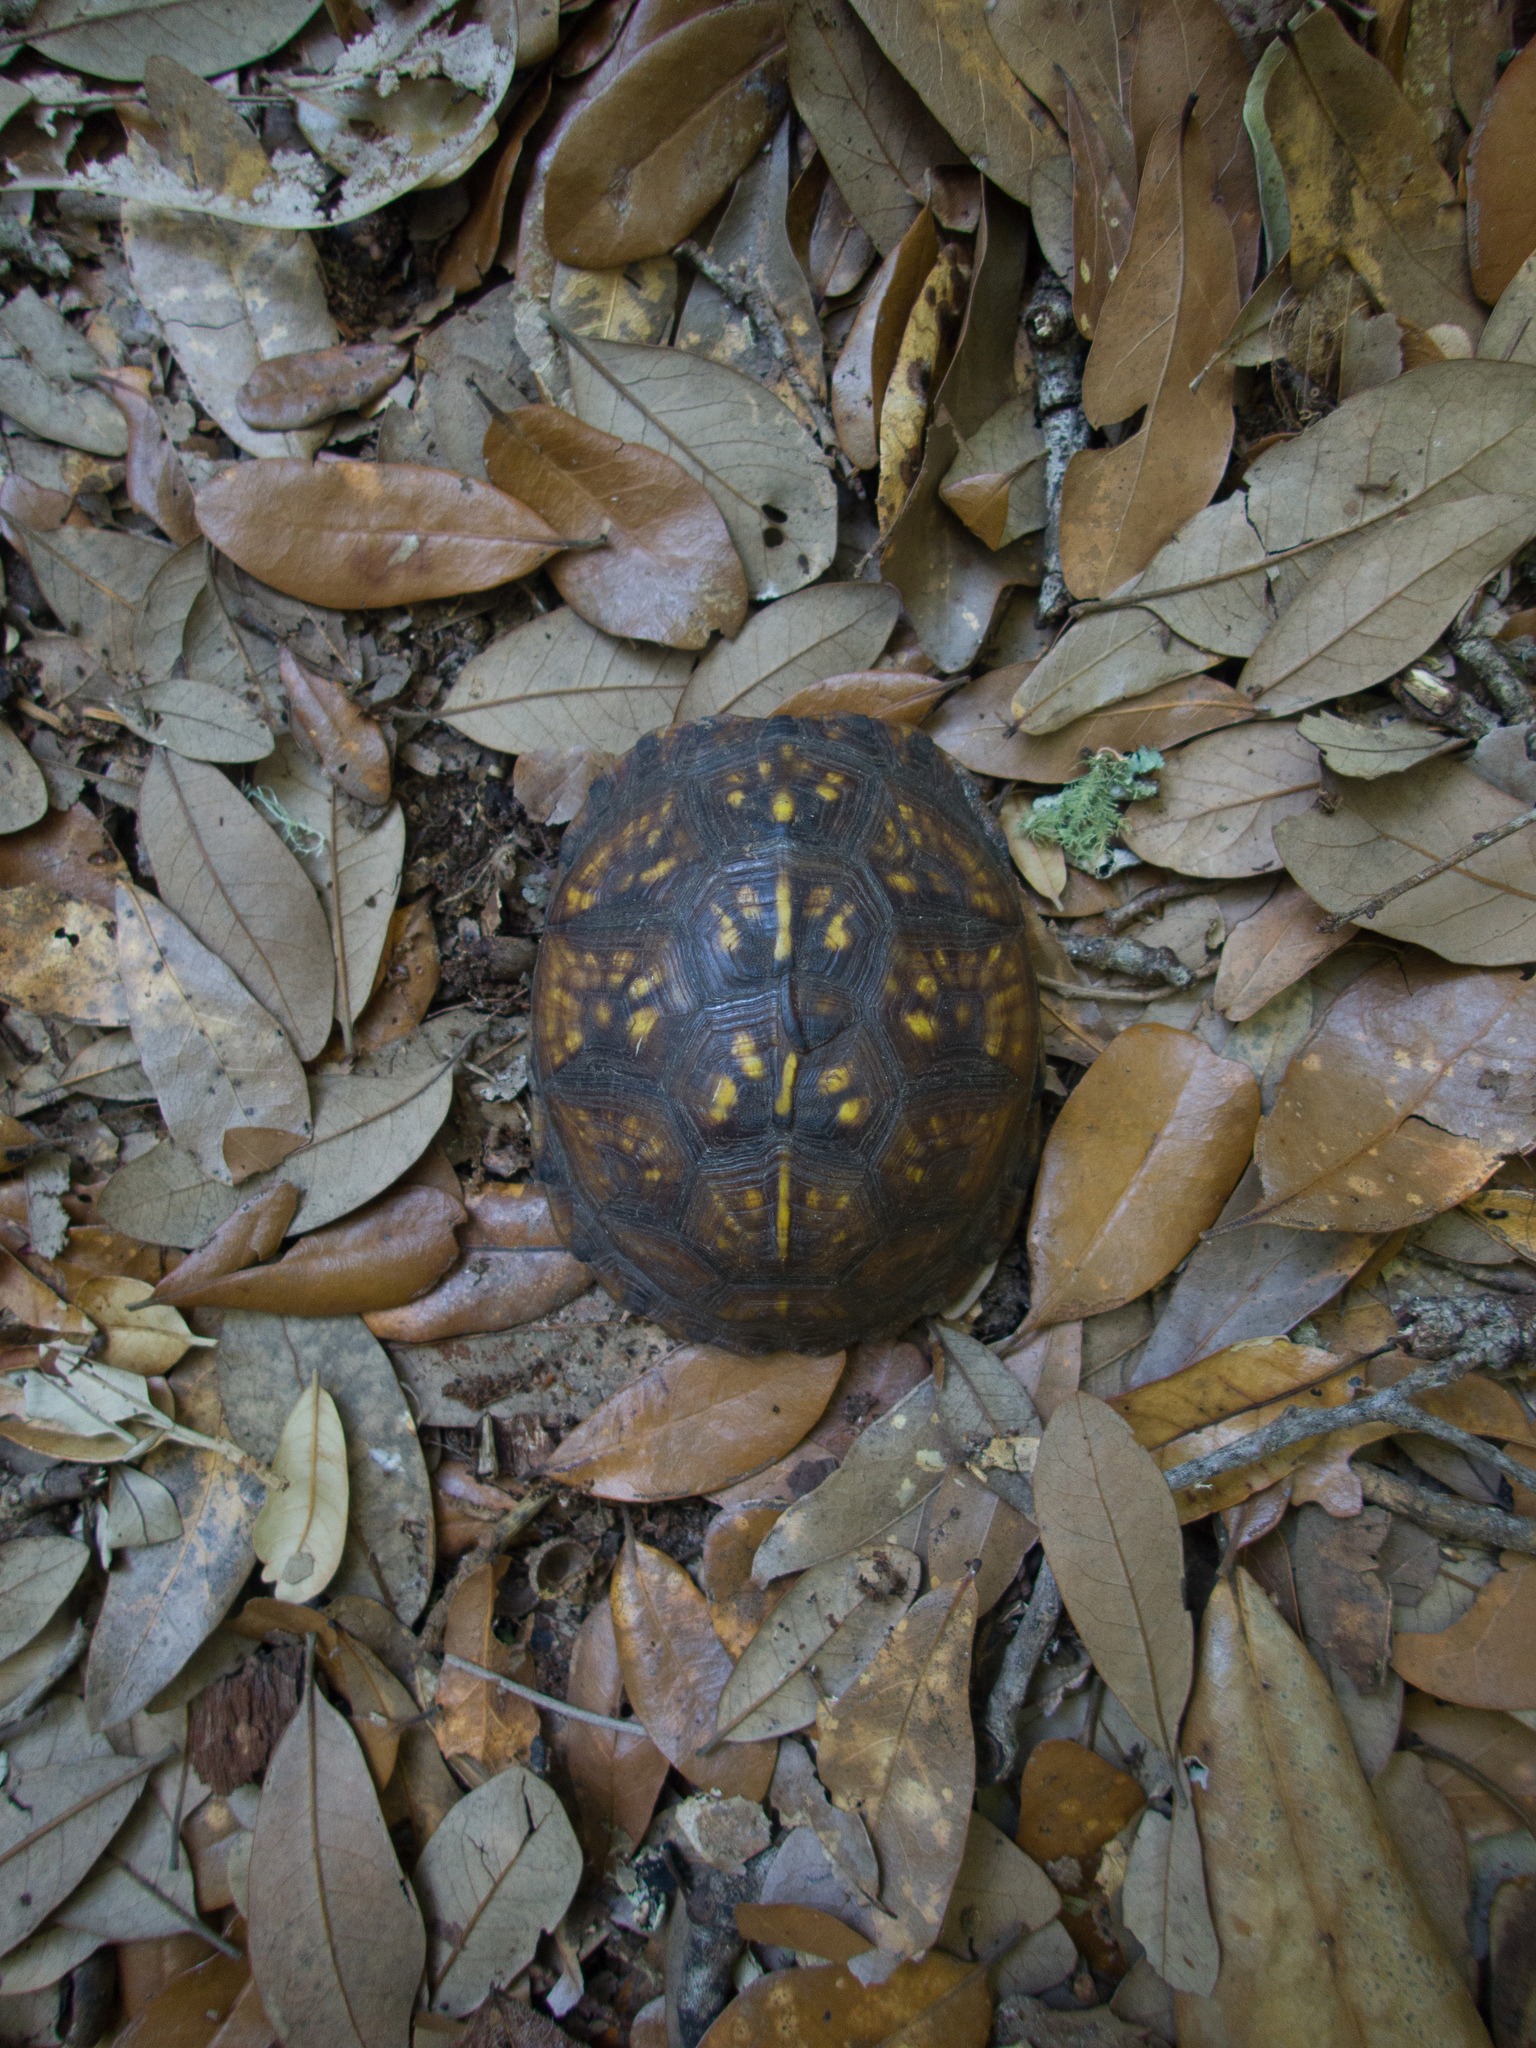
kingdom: Animalia
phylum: Chordata
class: Testudines
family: Emydidae
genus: Terrapene
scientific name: Terrapene carolina
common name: Common box turtle
